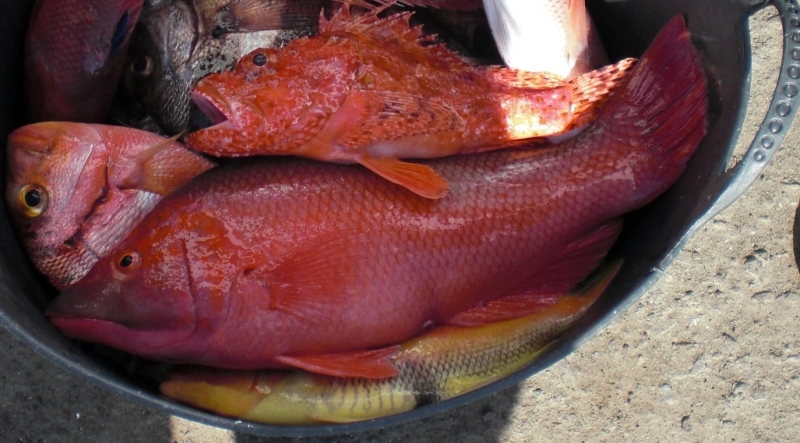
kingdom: Animalia
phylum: Chordata
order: Perciformes
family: Labridae
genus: Bodianus
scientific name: Bodianus scrofa
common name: Barred hogfish
